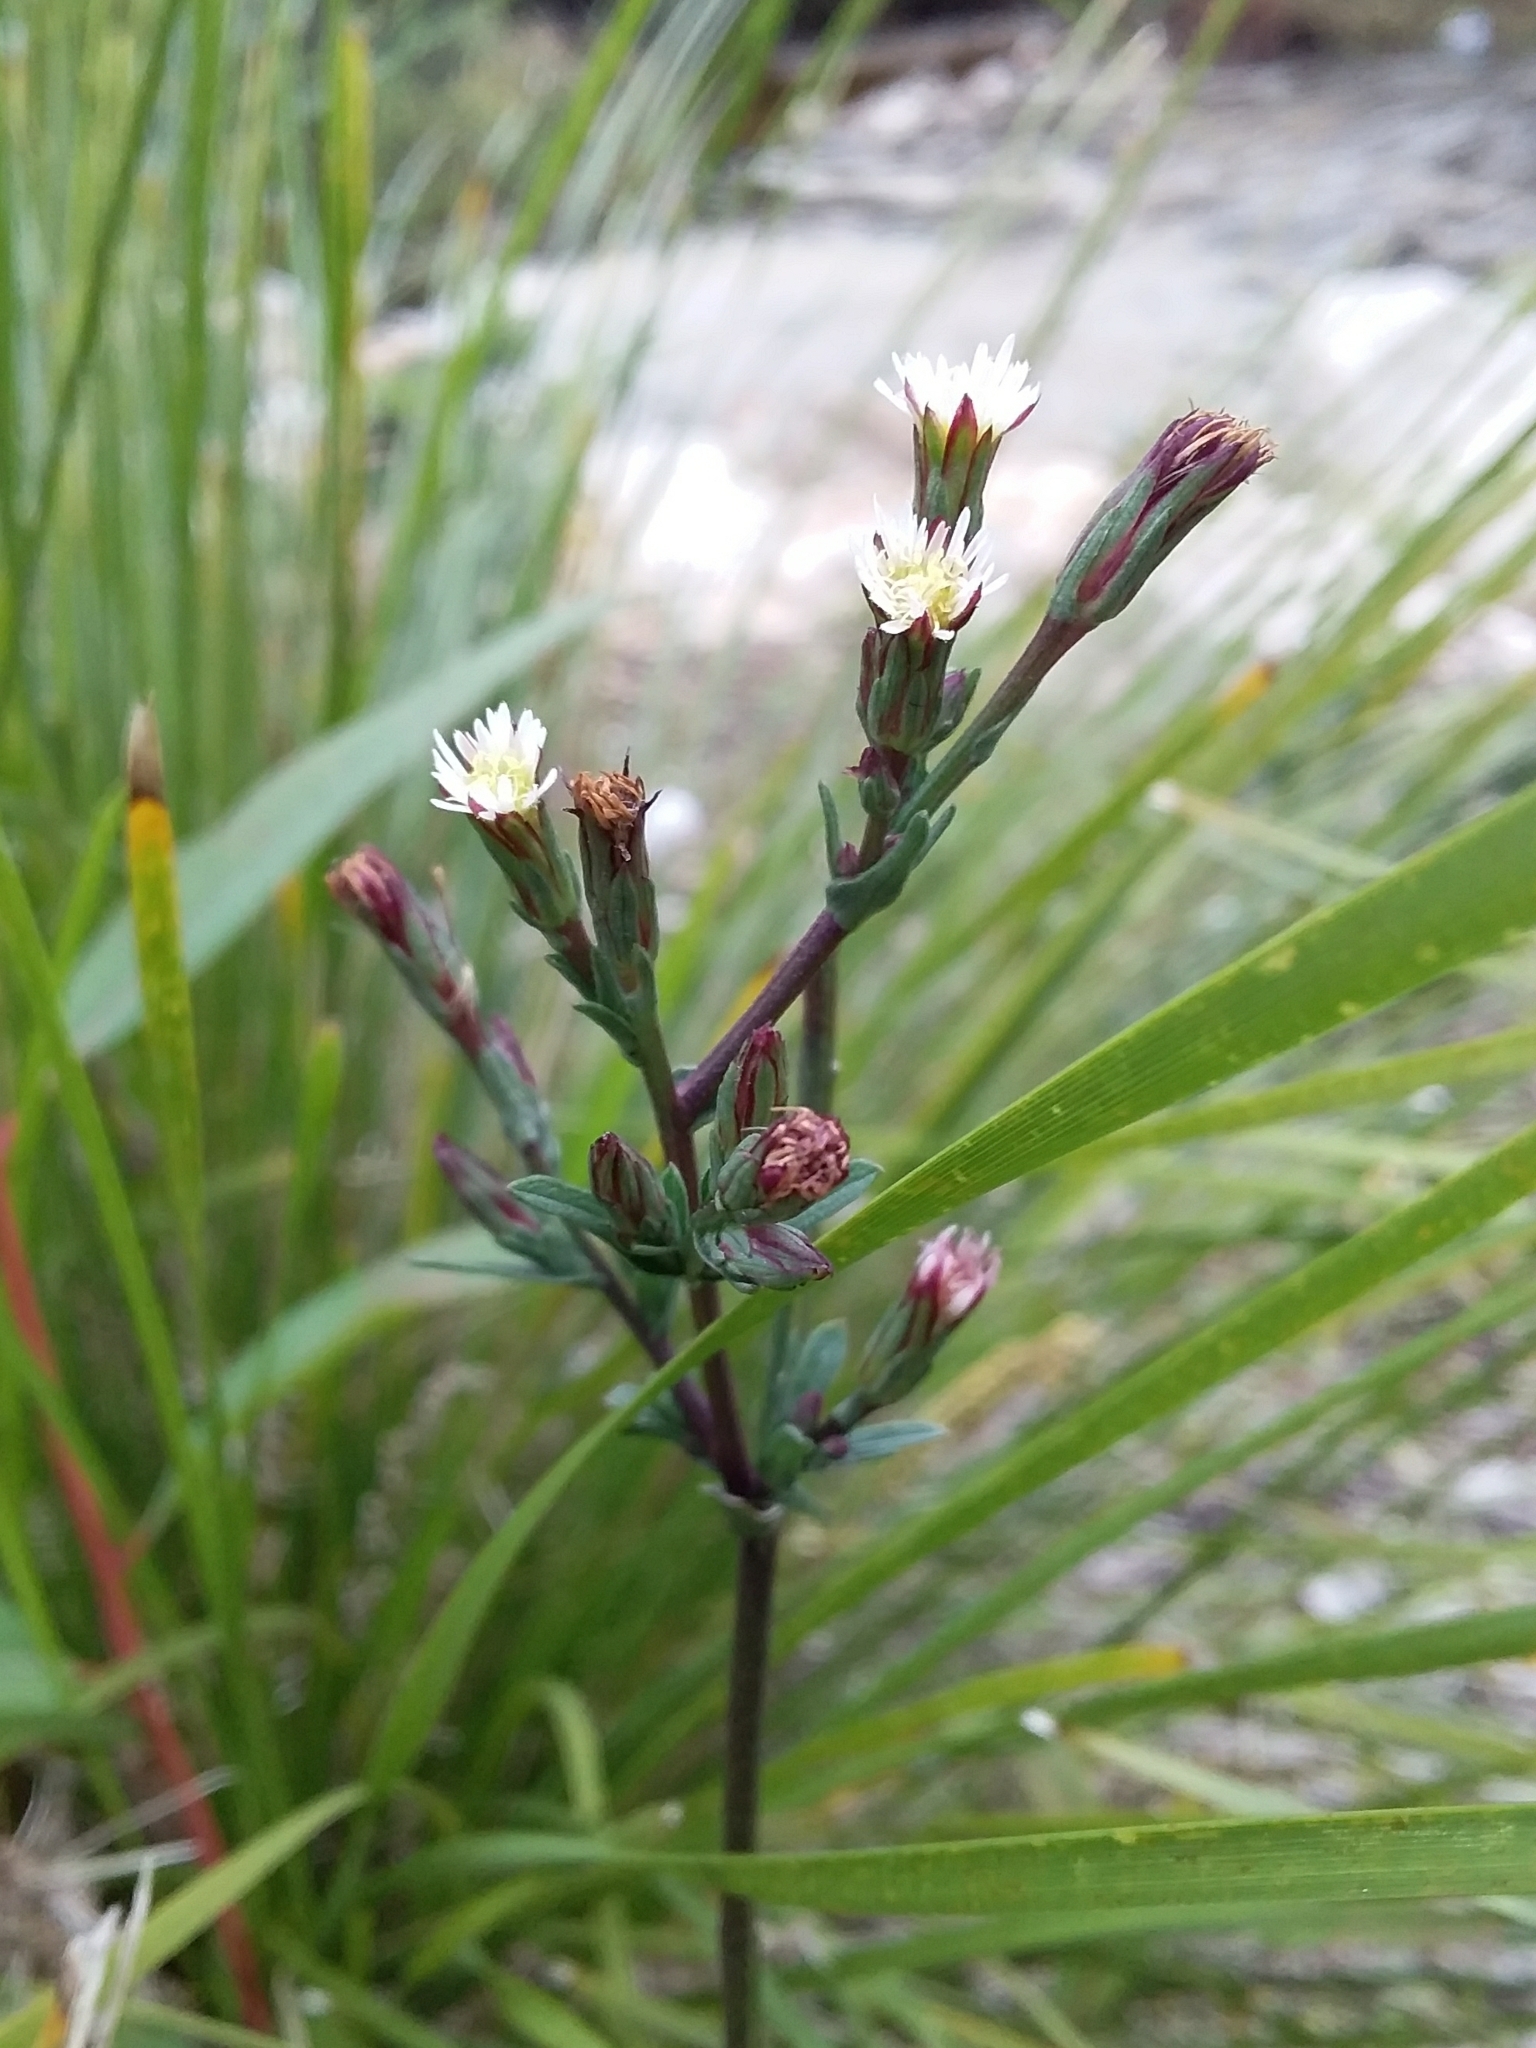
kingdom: Plantae
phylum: Tracheophyta
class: Magnoliopsida
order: Asterales
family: Asteraceae
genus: Symphyotrichum
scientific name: Symphyotrichum subulatum
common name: Annual saltmarsh aster
